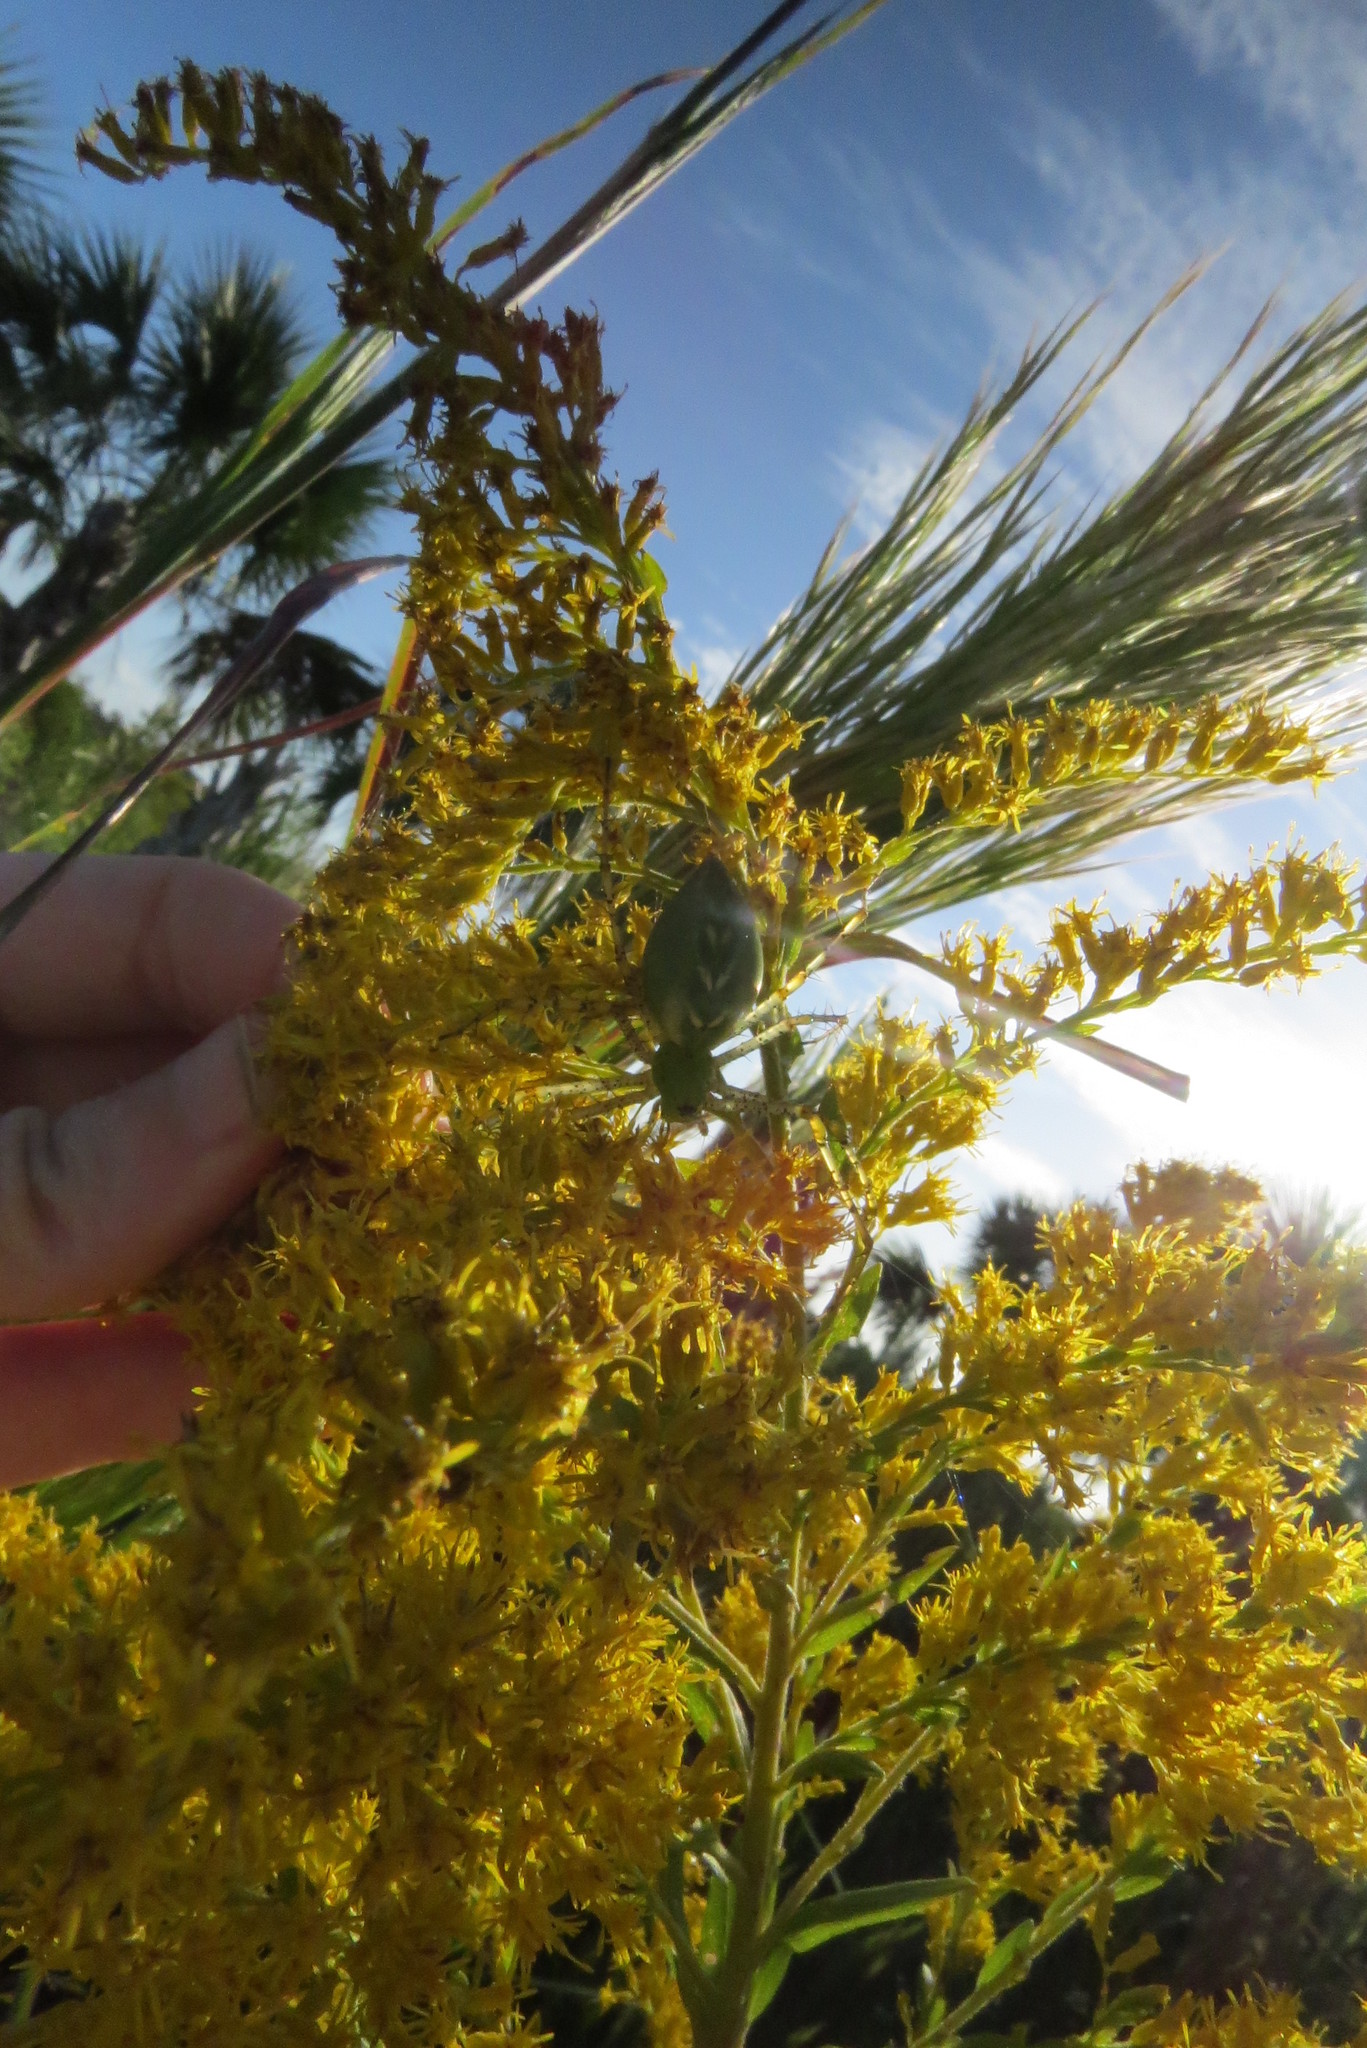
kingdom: Animalia
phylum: Arthropoda
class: Arachnida
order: Araneae
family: Oxyopidae
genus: Peucetia
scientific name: Peucetia viridans
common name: Lynx spiders
